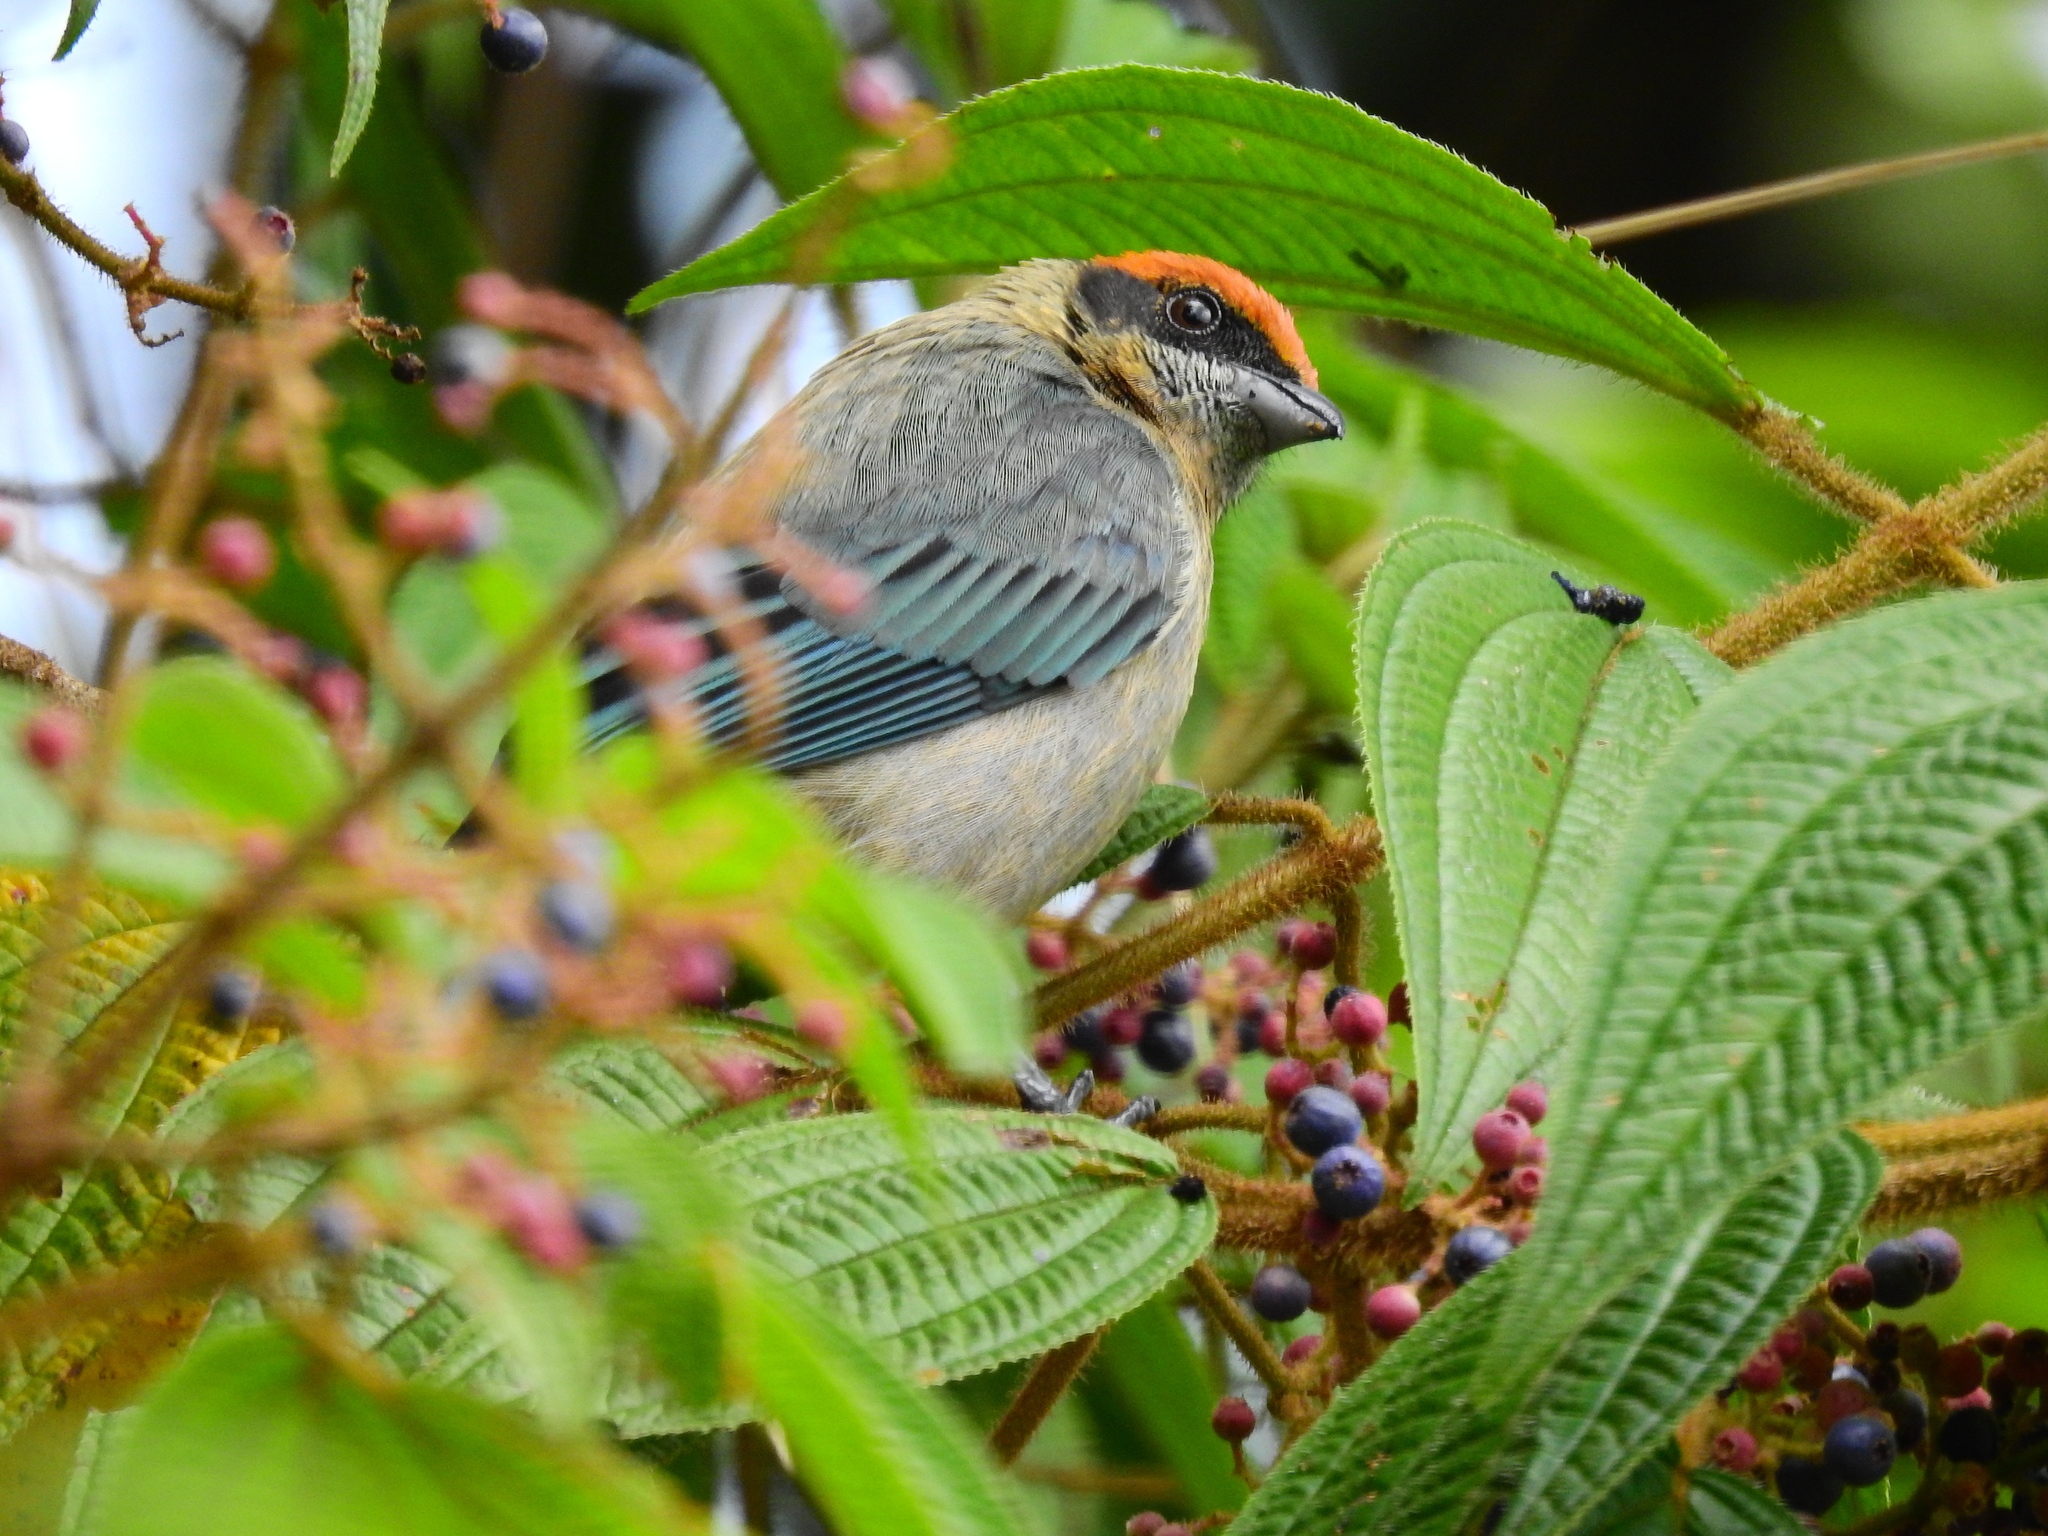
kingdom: Animalia
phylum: Chordata
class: Aves
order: Passeriformes
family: Thraupidae
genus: Stilpnia
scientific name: Stilpnia vitriolina
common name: Scrub tanager
